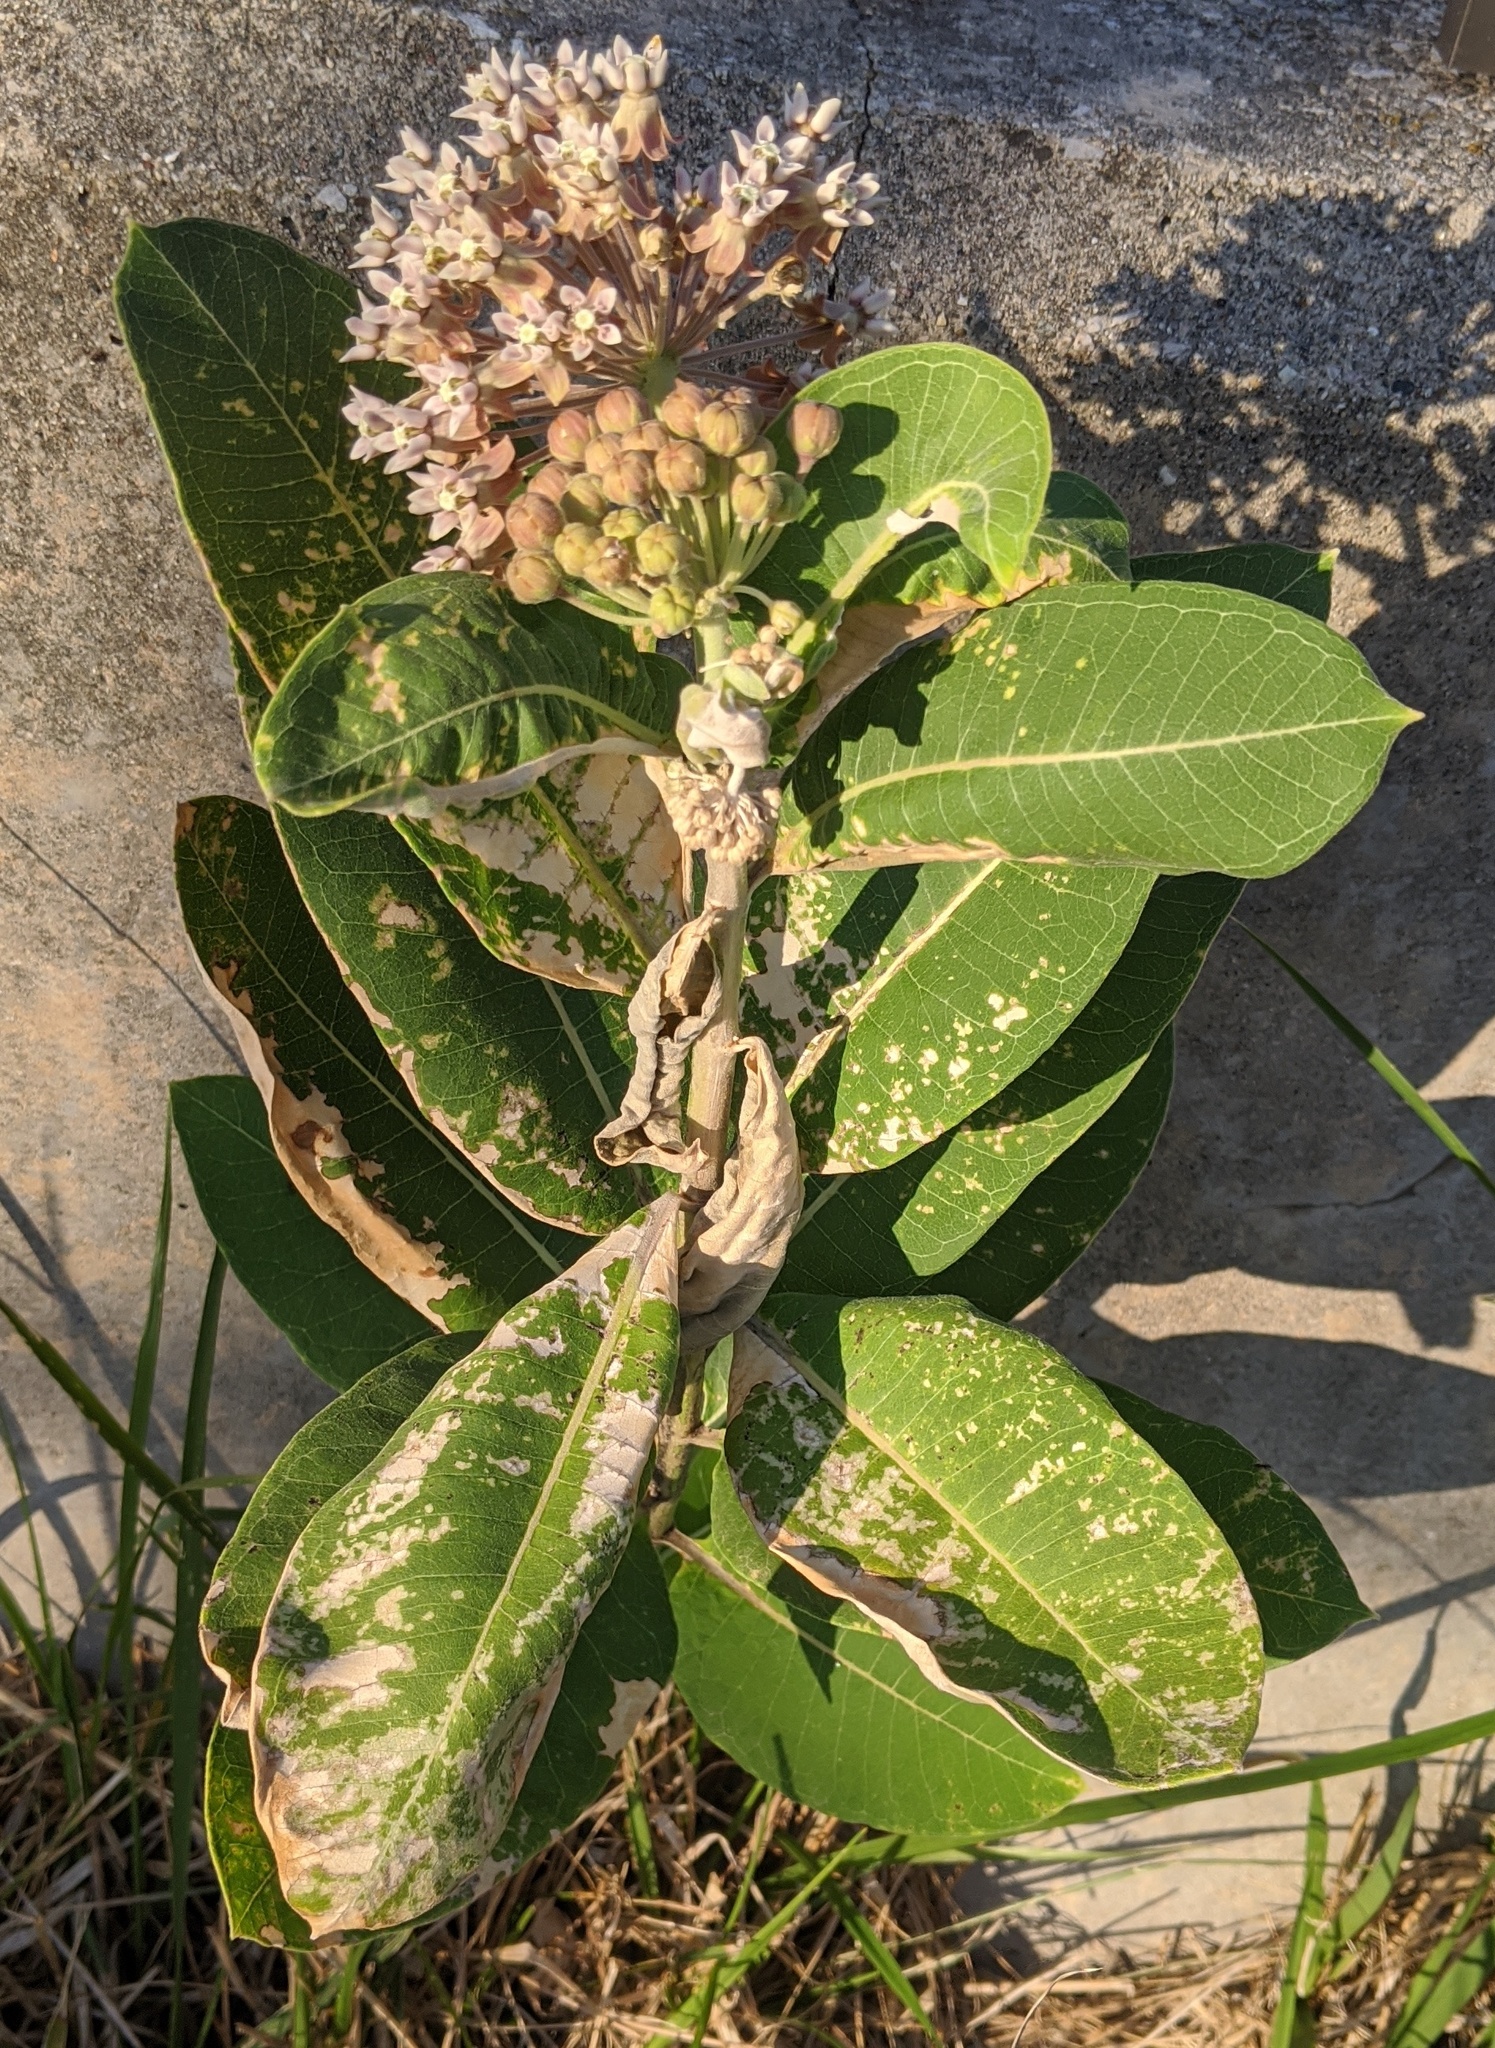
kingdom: Plantae
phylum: Tracheophyta
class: Magnoliopsida
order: Gentianales
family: Apocynaceae
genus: Asclepias
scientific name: Asclepias syriaca
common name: Common milkweed
